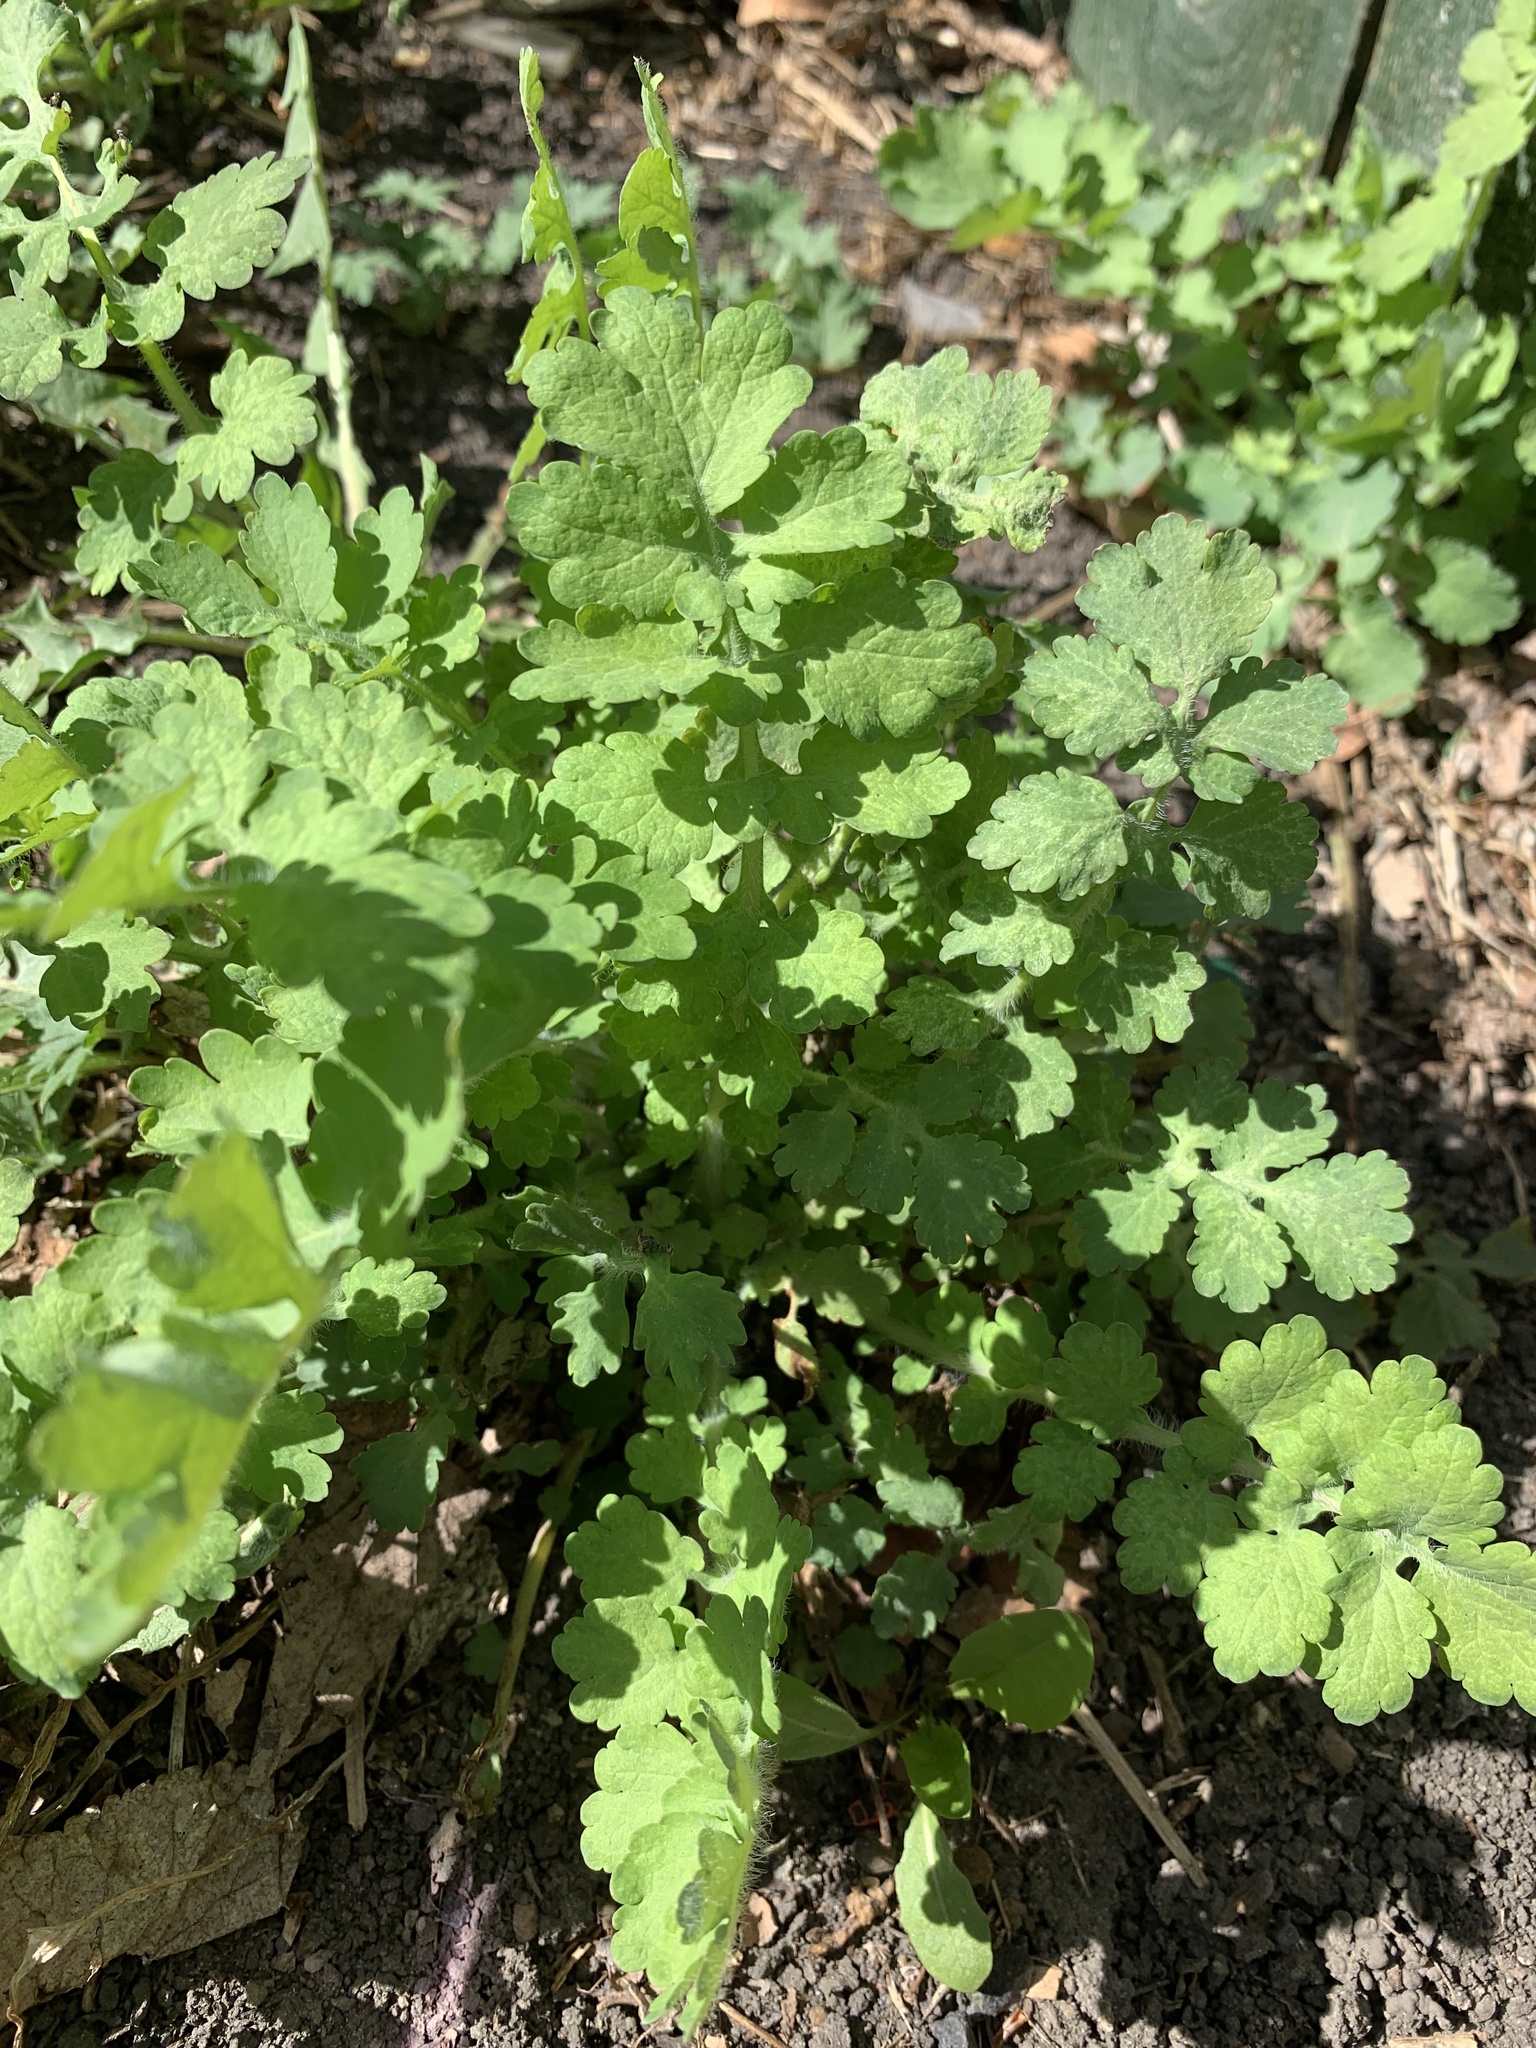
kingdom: Plantae
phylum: Tracheophyta
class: Magnoliopsida
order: Ranunculales
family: Papaveraceae
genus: Chelidonium
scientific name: Chelidonium majus
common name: Greater celandine
